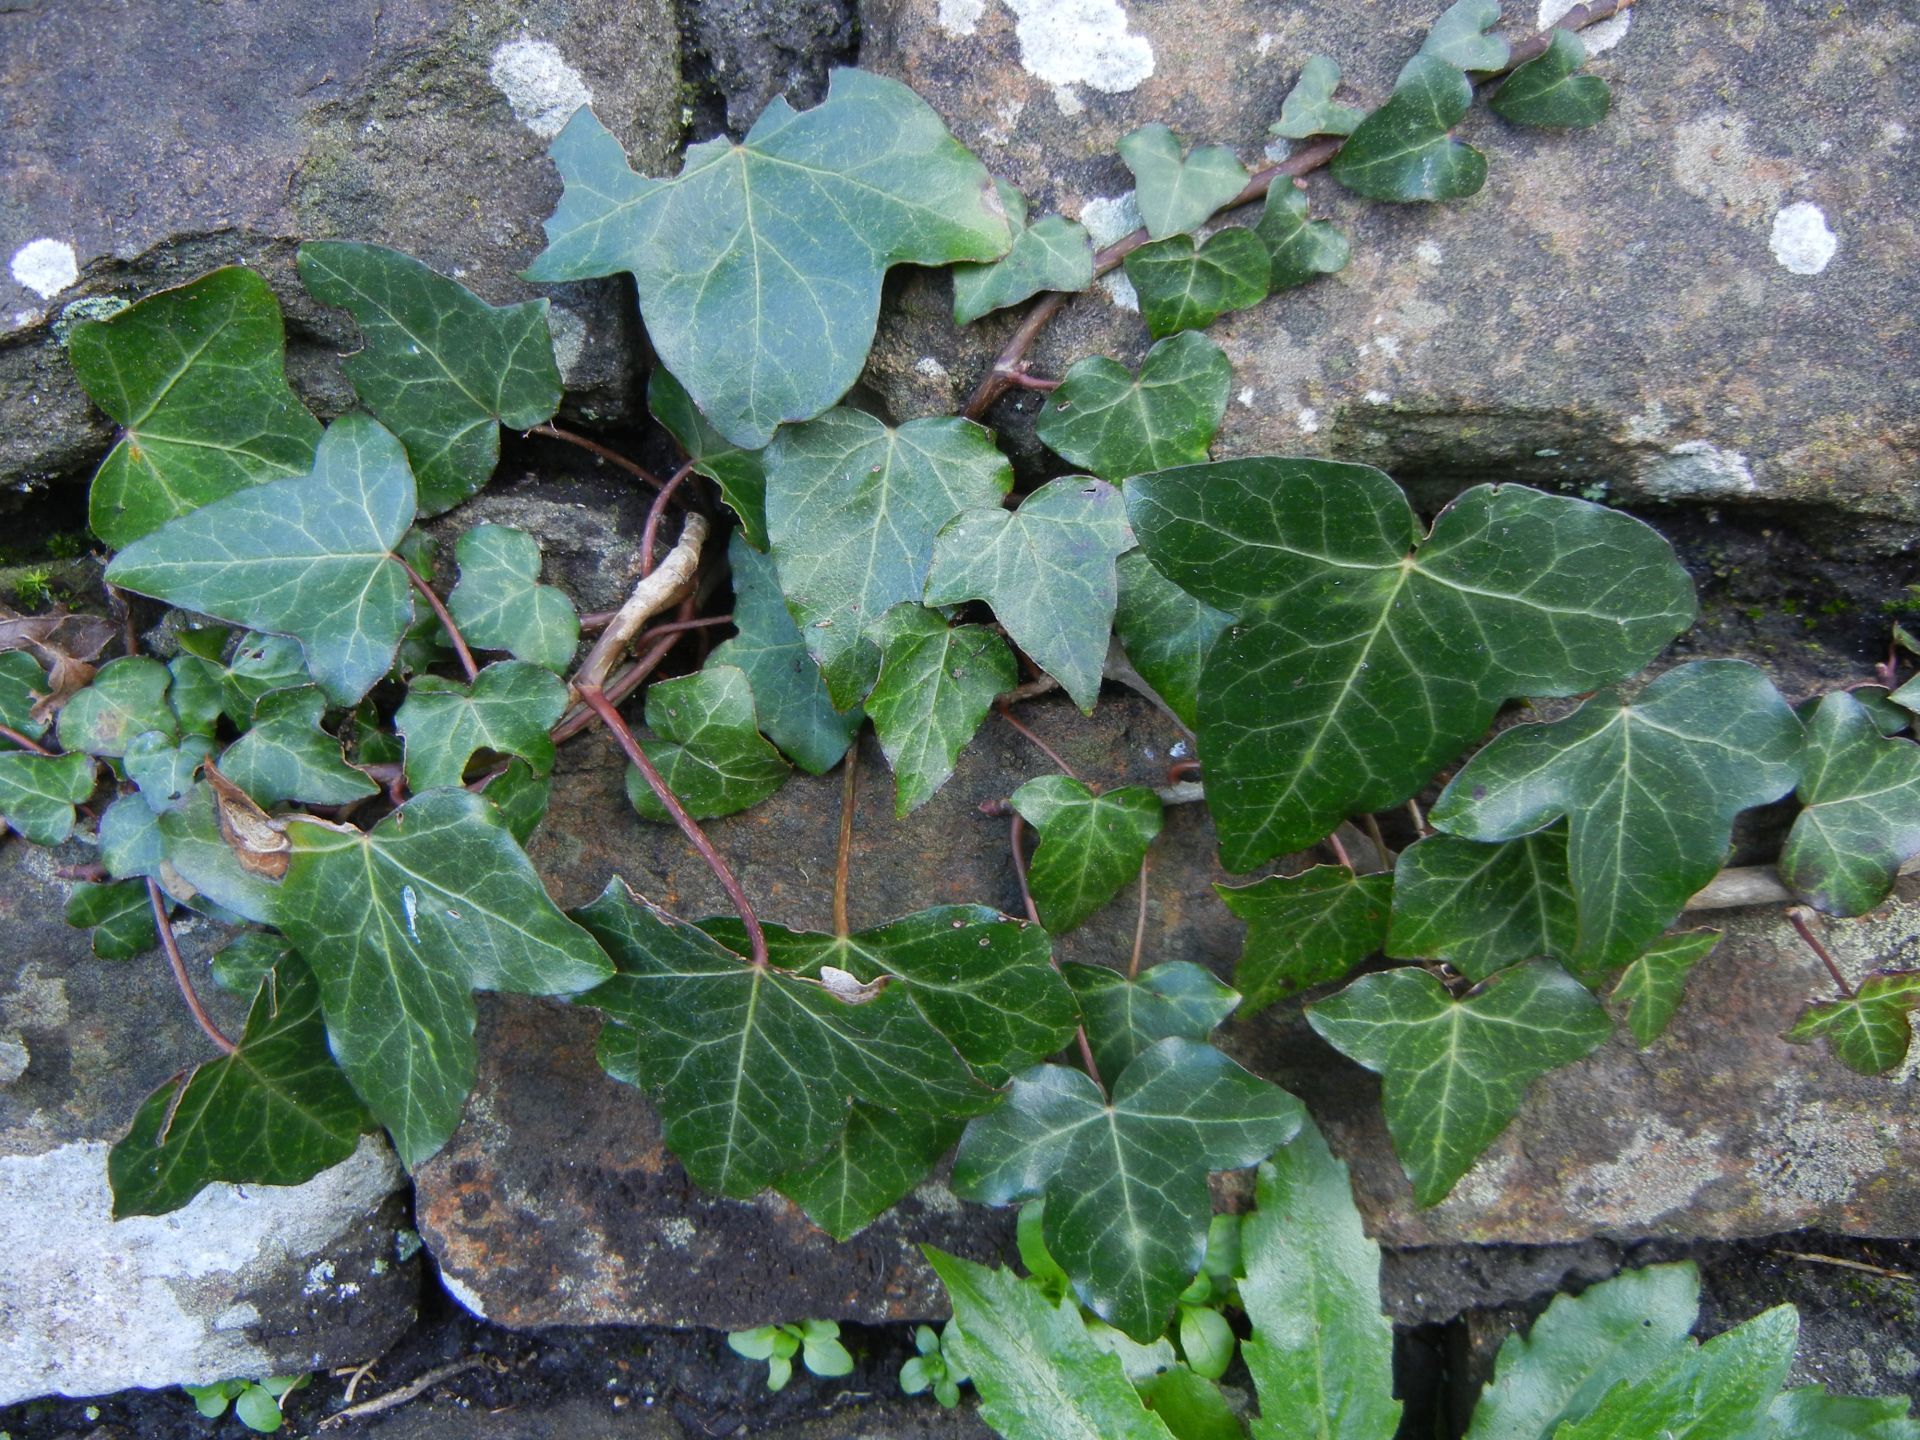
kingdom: Plantae
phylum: Tracheophyta
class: Magnoliopsida
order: Apiales
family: Araliaceae
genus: Hedera
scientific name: Hedera helix
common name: Ivy
